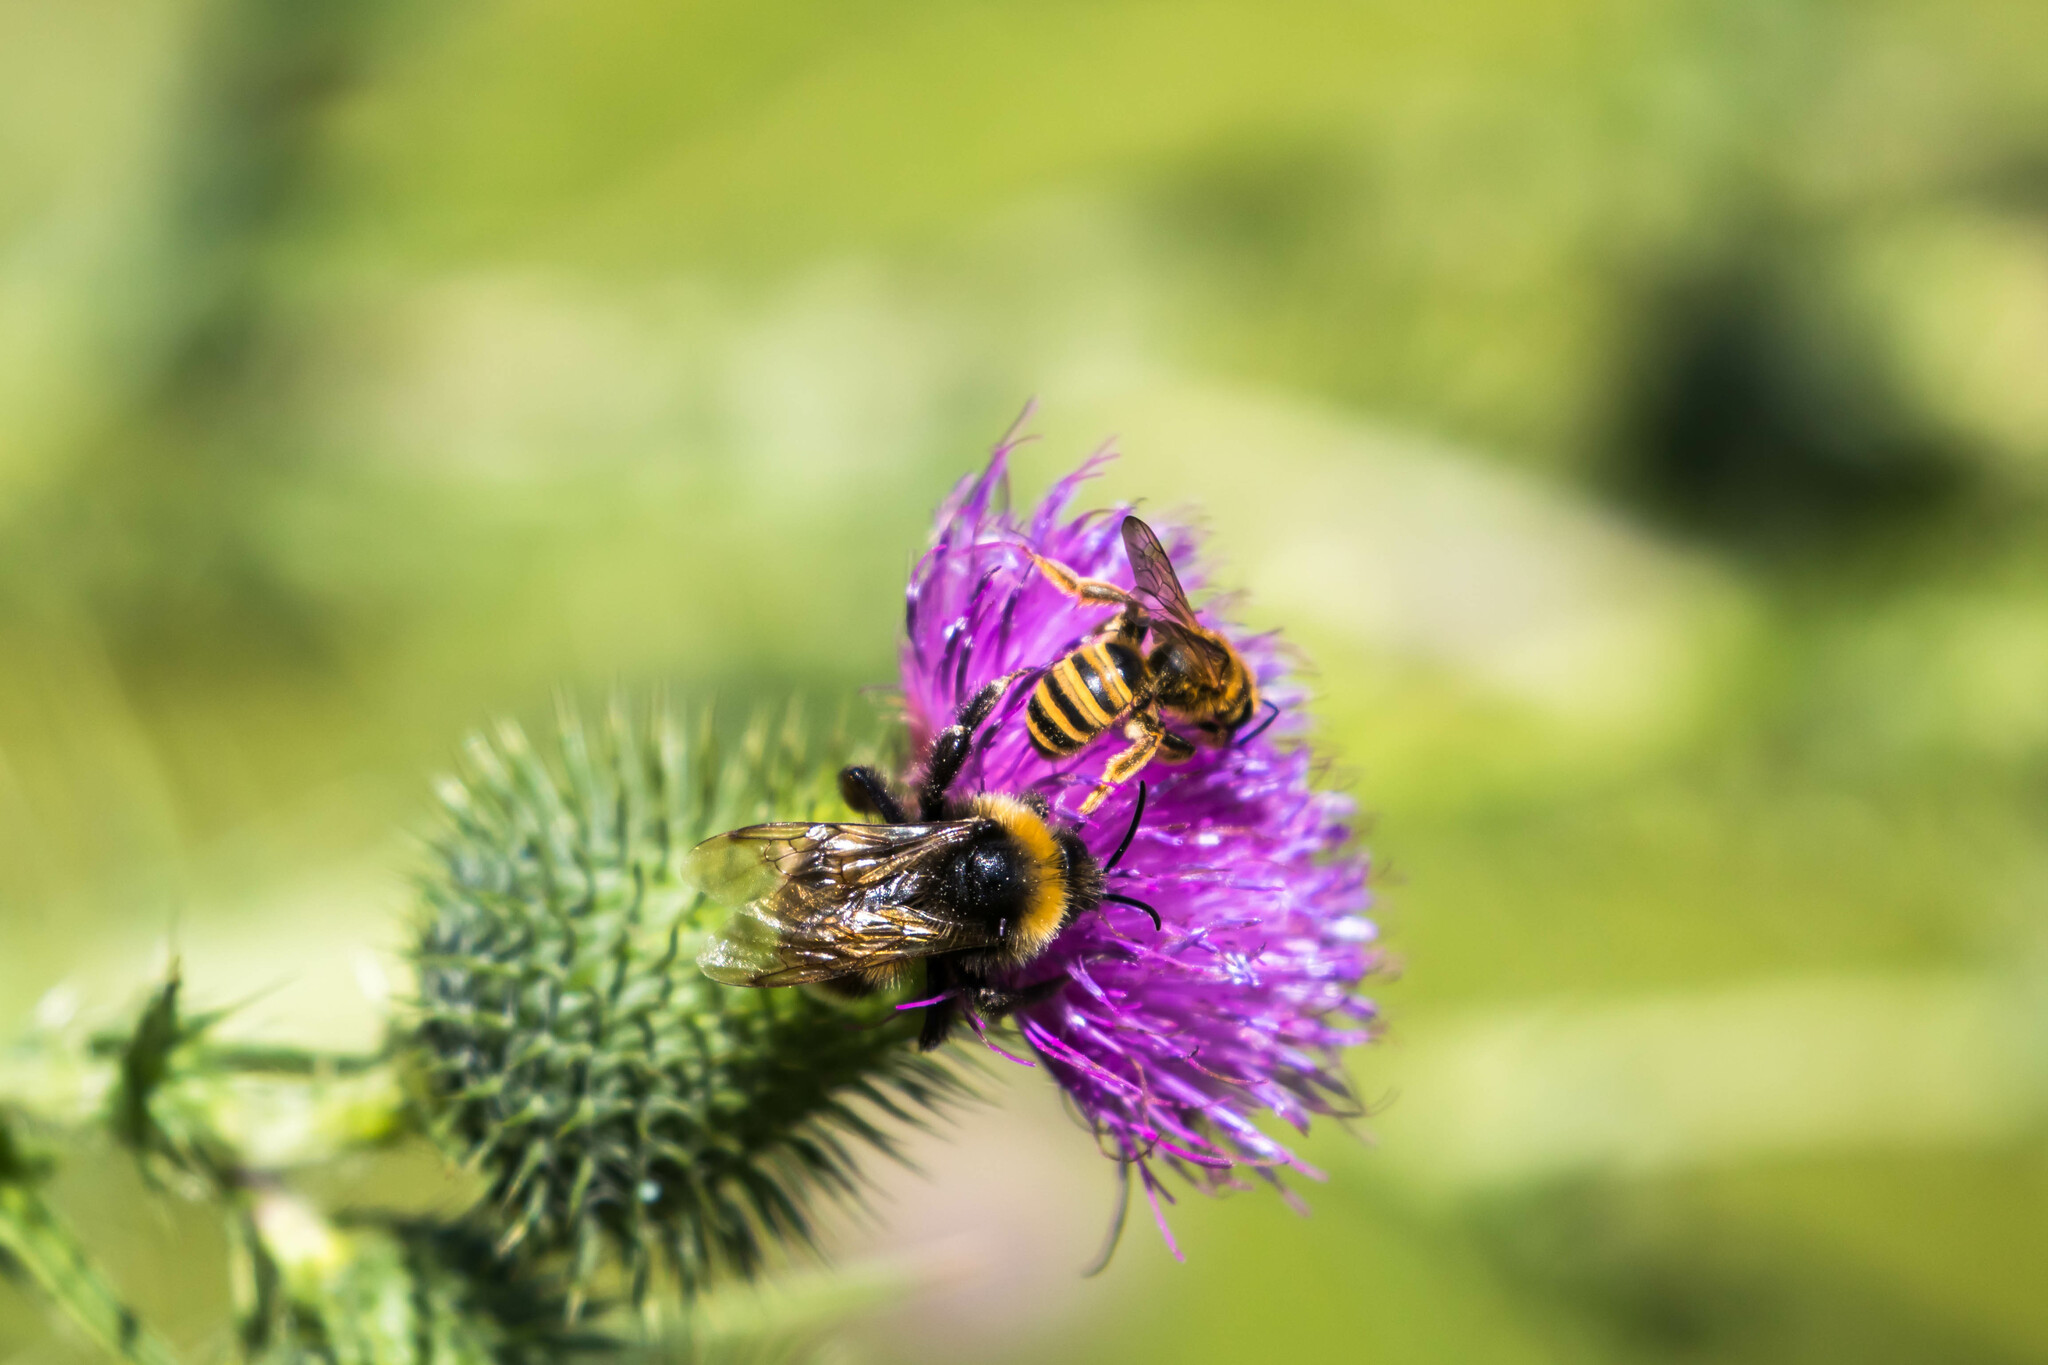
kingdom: Animalia
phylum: Arthropoda
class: Insecta
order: Hymenoptera
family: Halictidae
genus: Halictus
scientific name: Halictus scabiosae
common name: Great banded furrow bee
